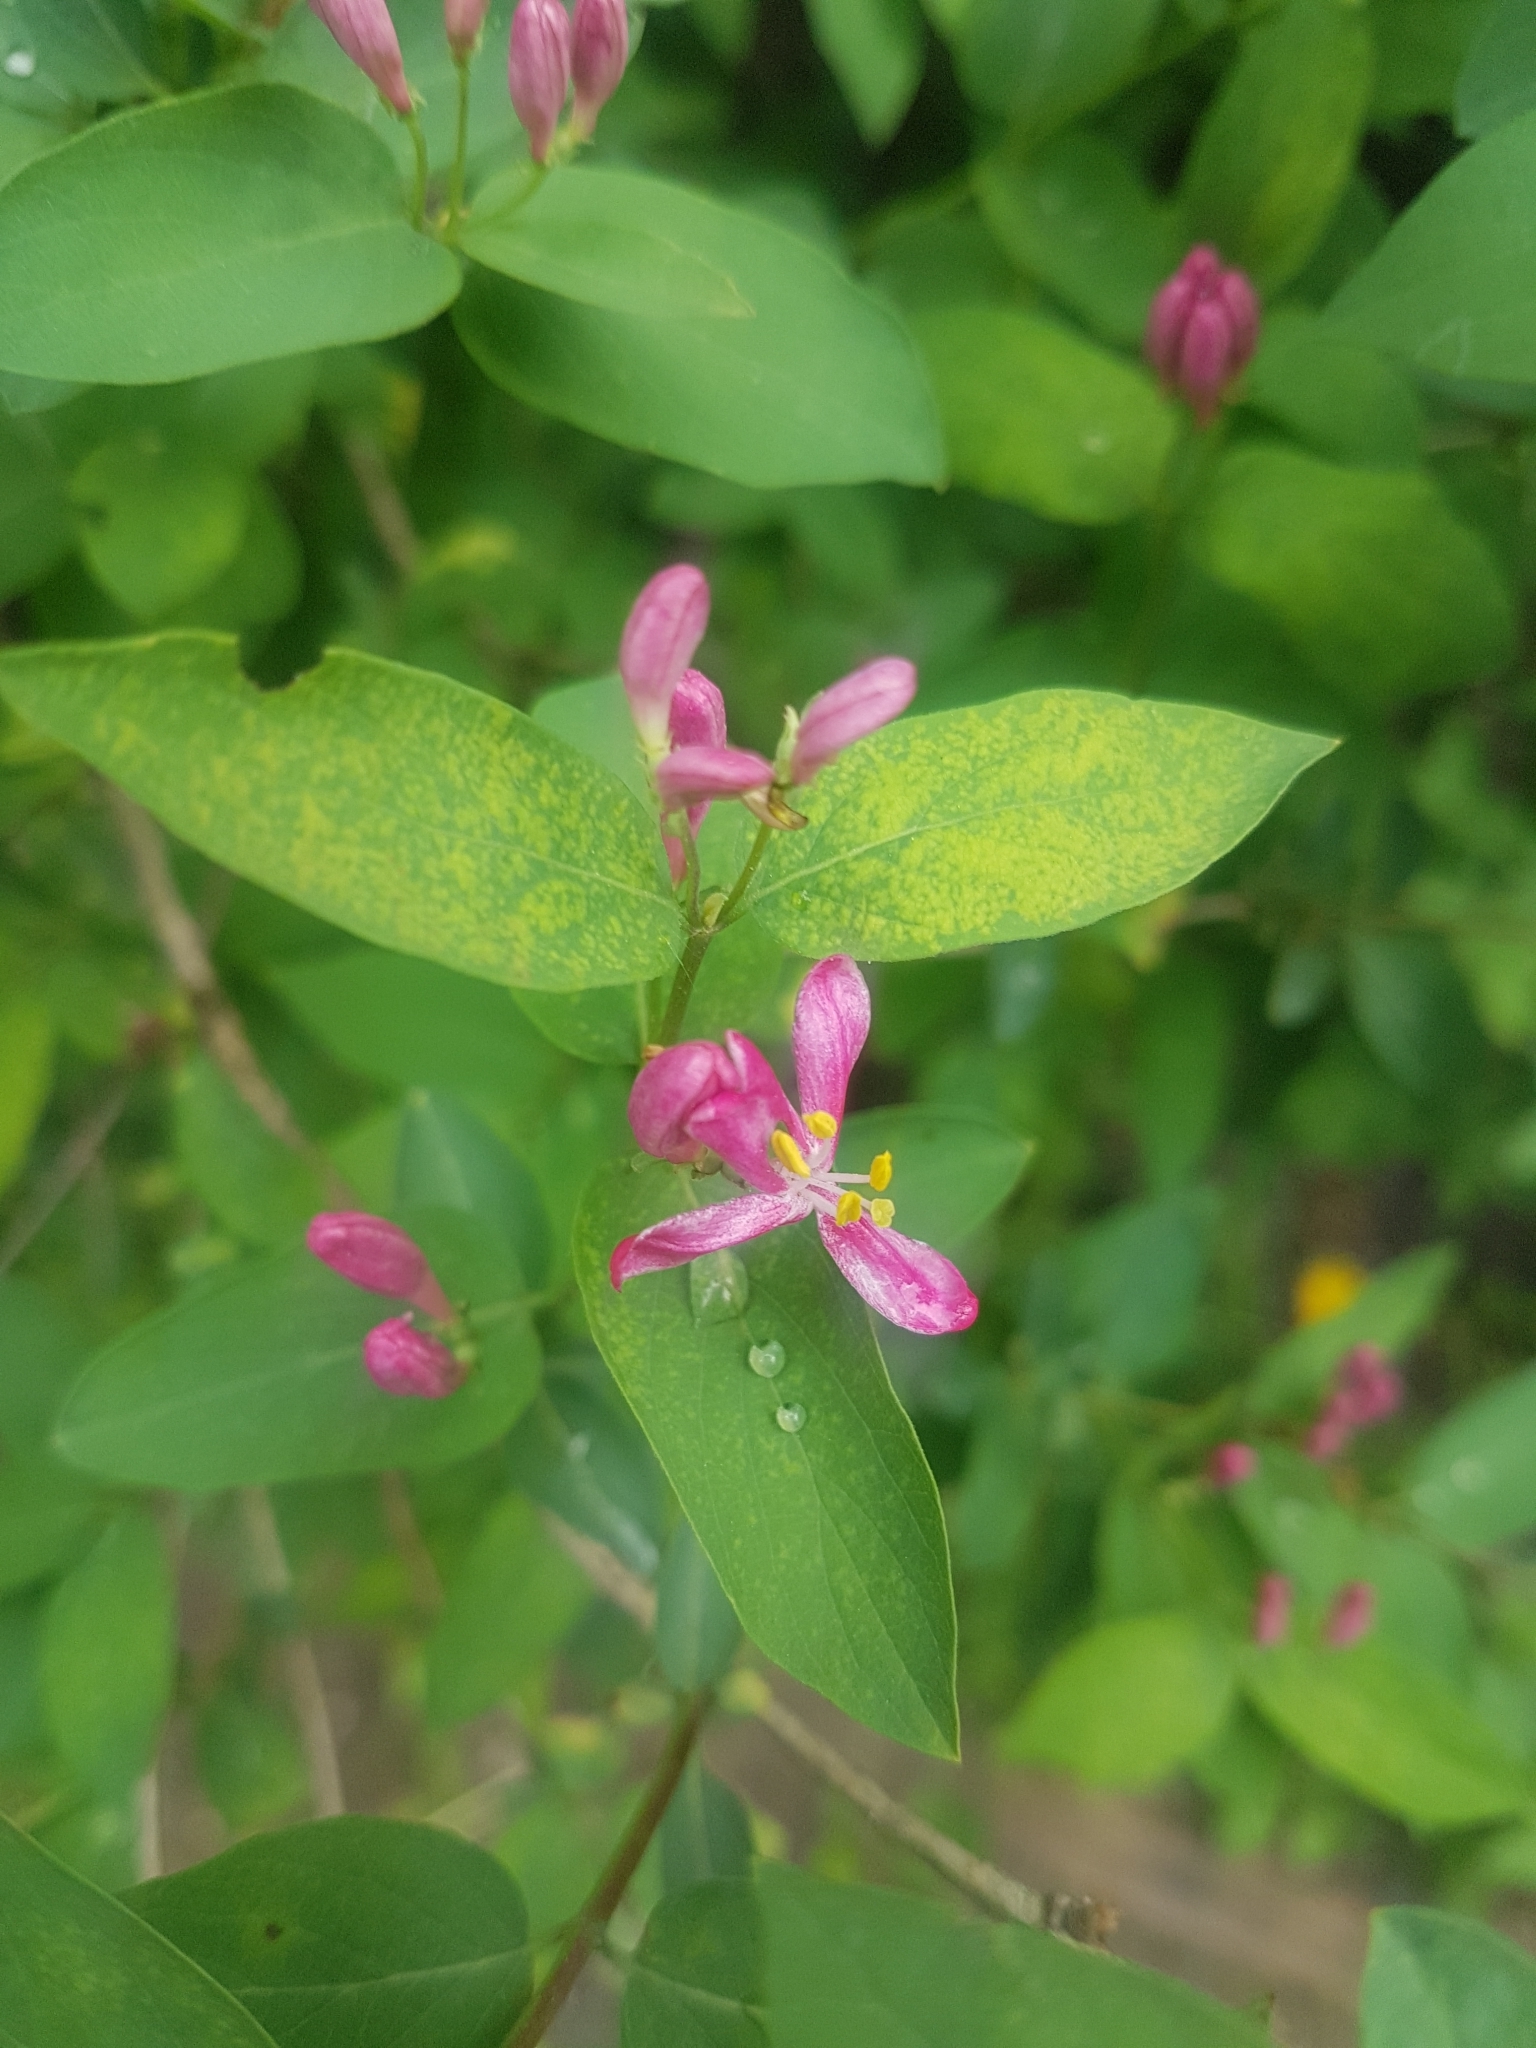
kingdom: Plantae
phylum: Tracheophyta
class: Magnoliopsida
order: Dipsacales
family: Caprifoliaceae
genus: Lonicera
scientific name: Lonicera tatarica
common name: Tatarian honeysuckle
